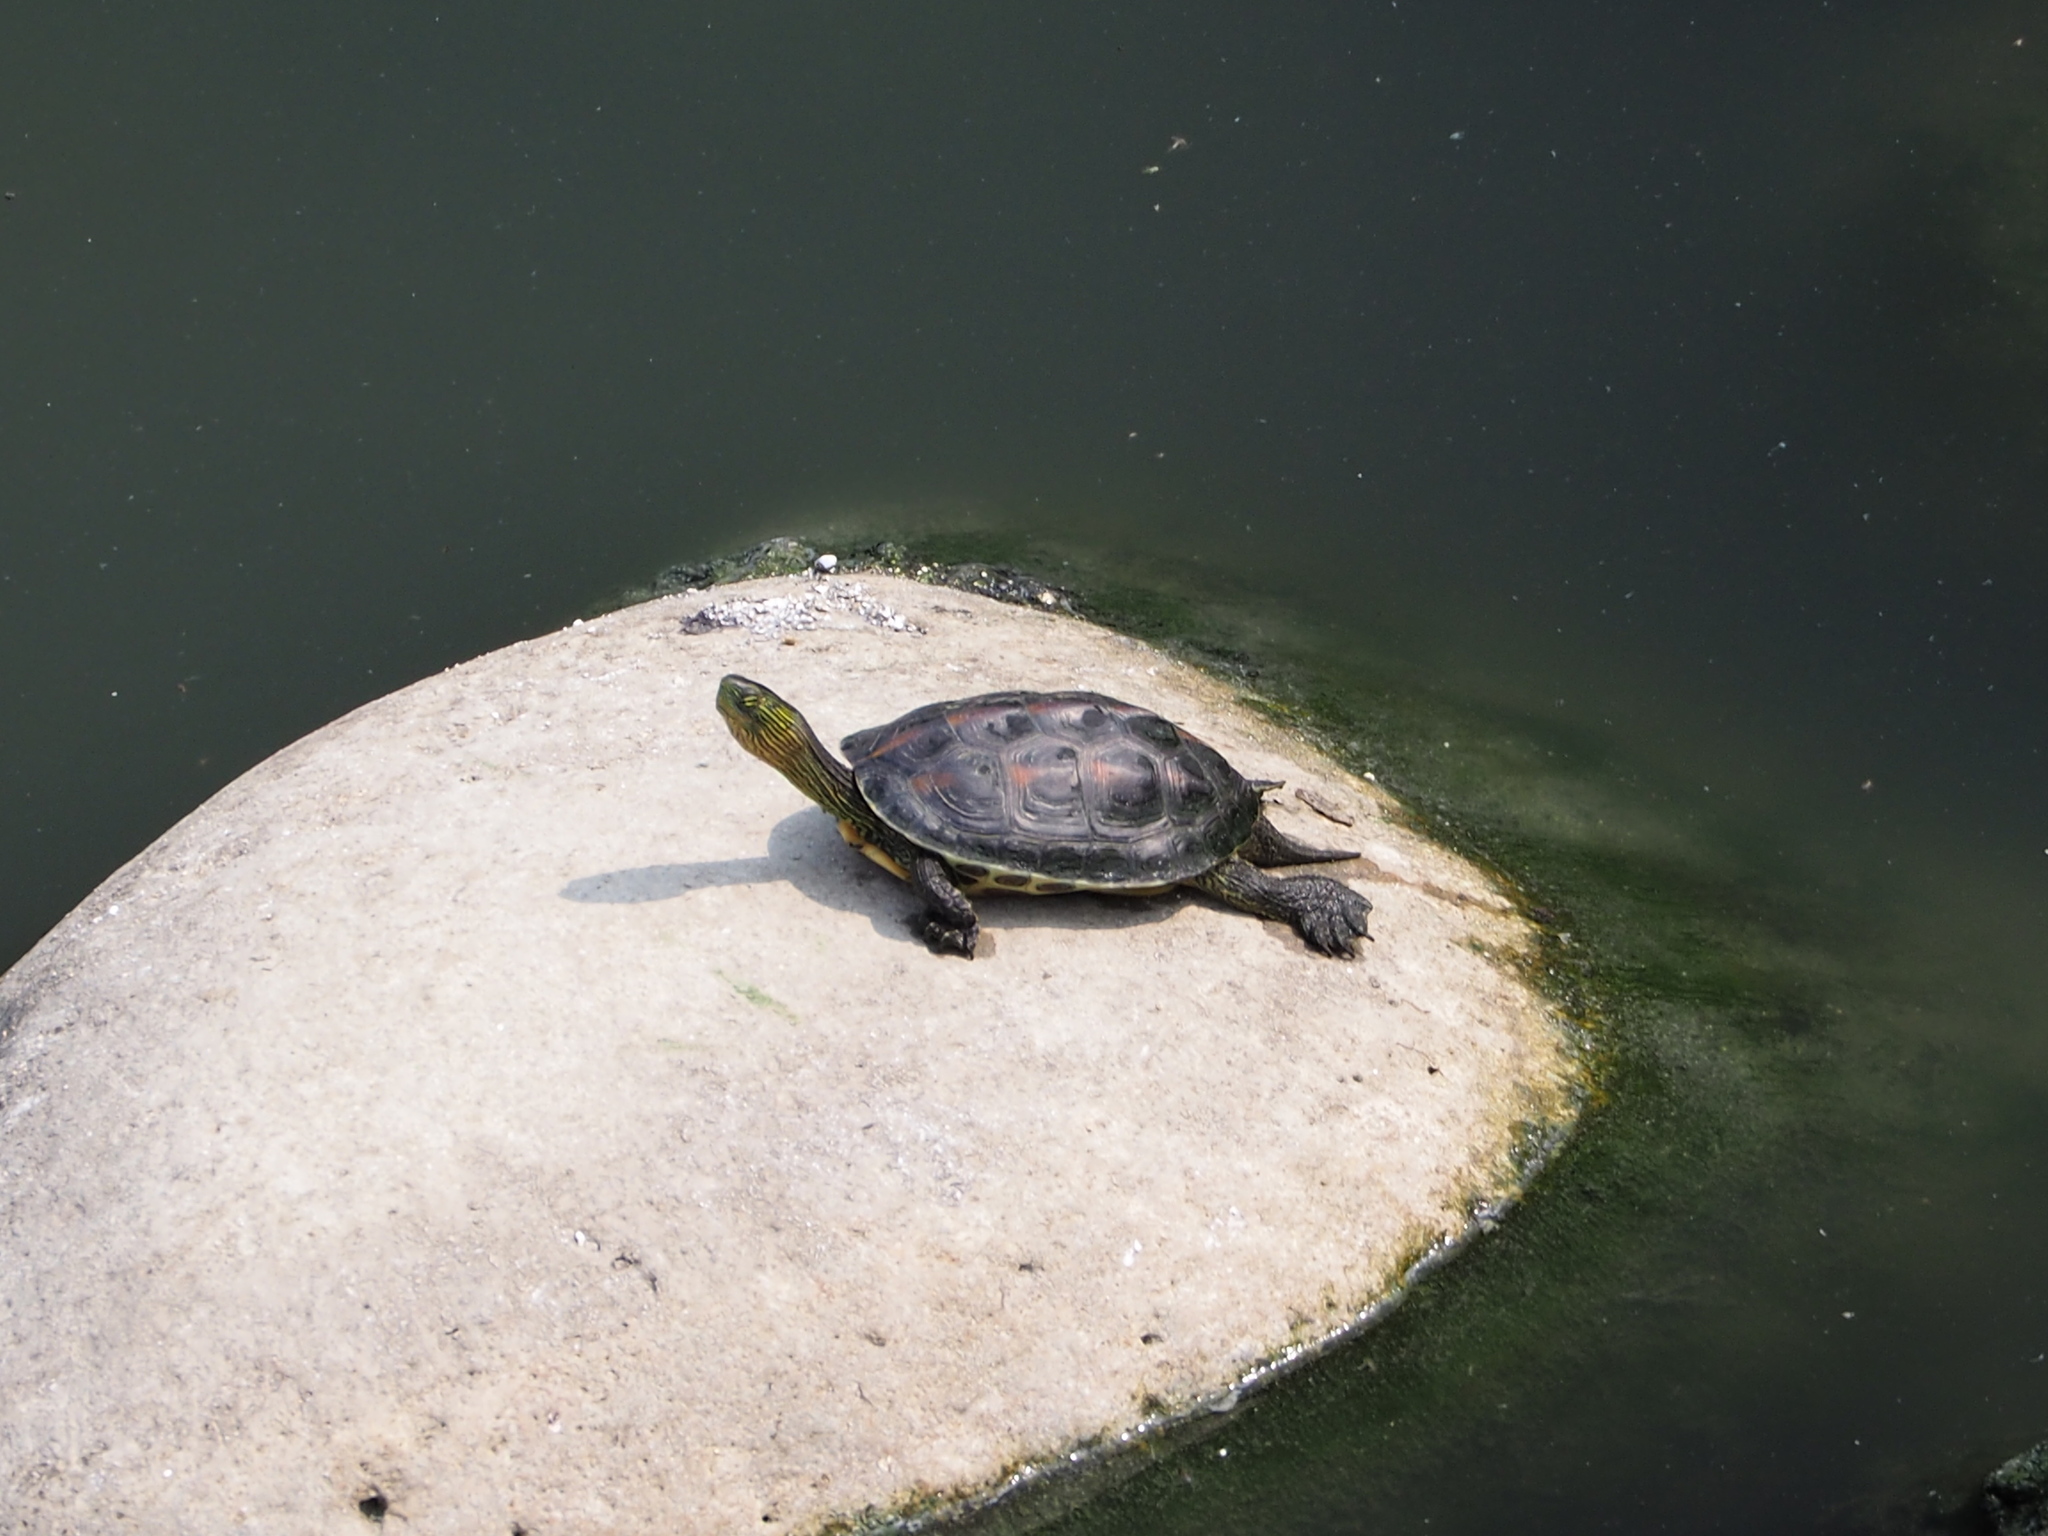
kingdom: Animalia
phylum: Chordata
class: Testudines
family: Geoemydidae
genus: Mauremys
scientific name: Mauremys sinensis
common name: Chinese stripe-necked turtle
